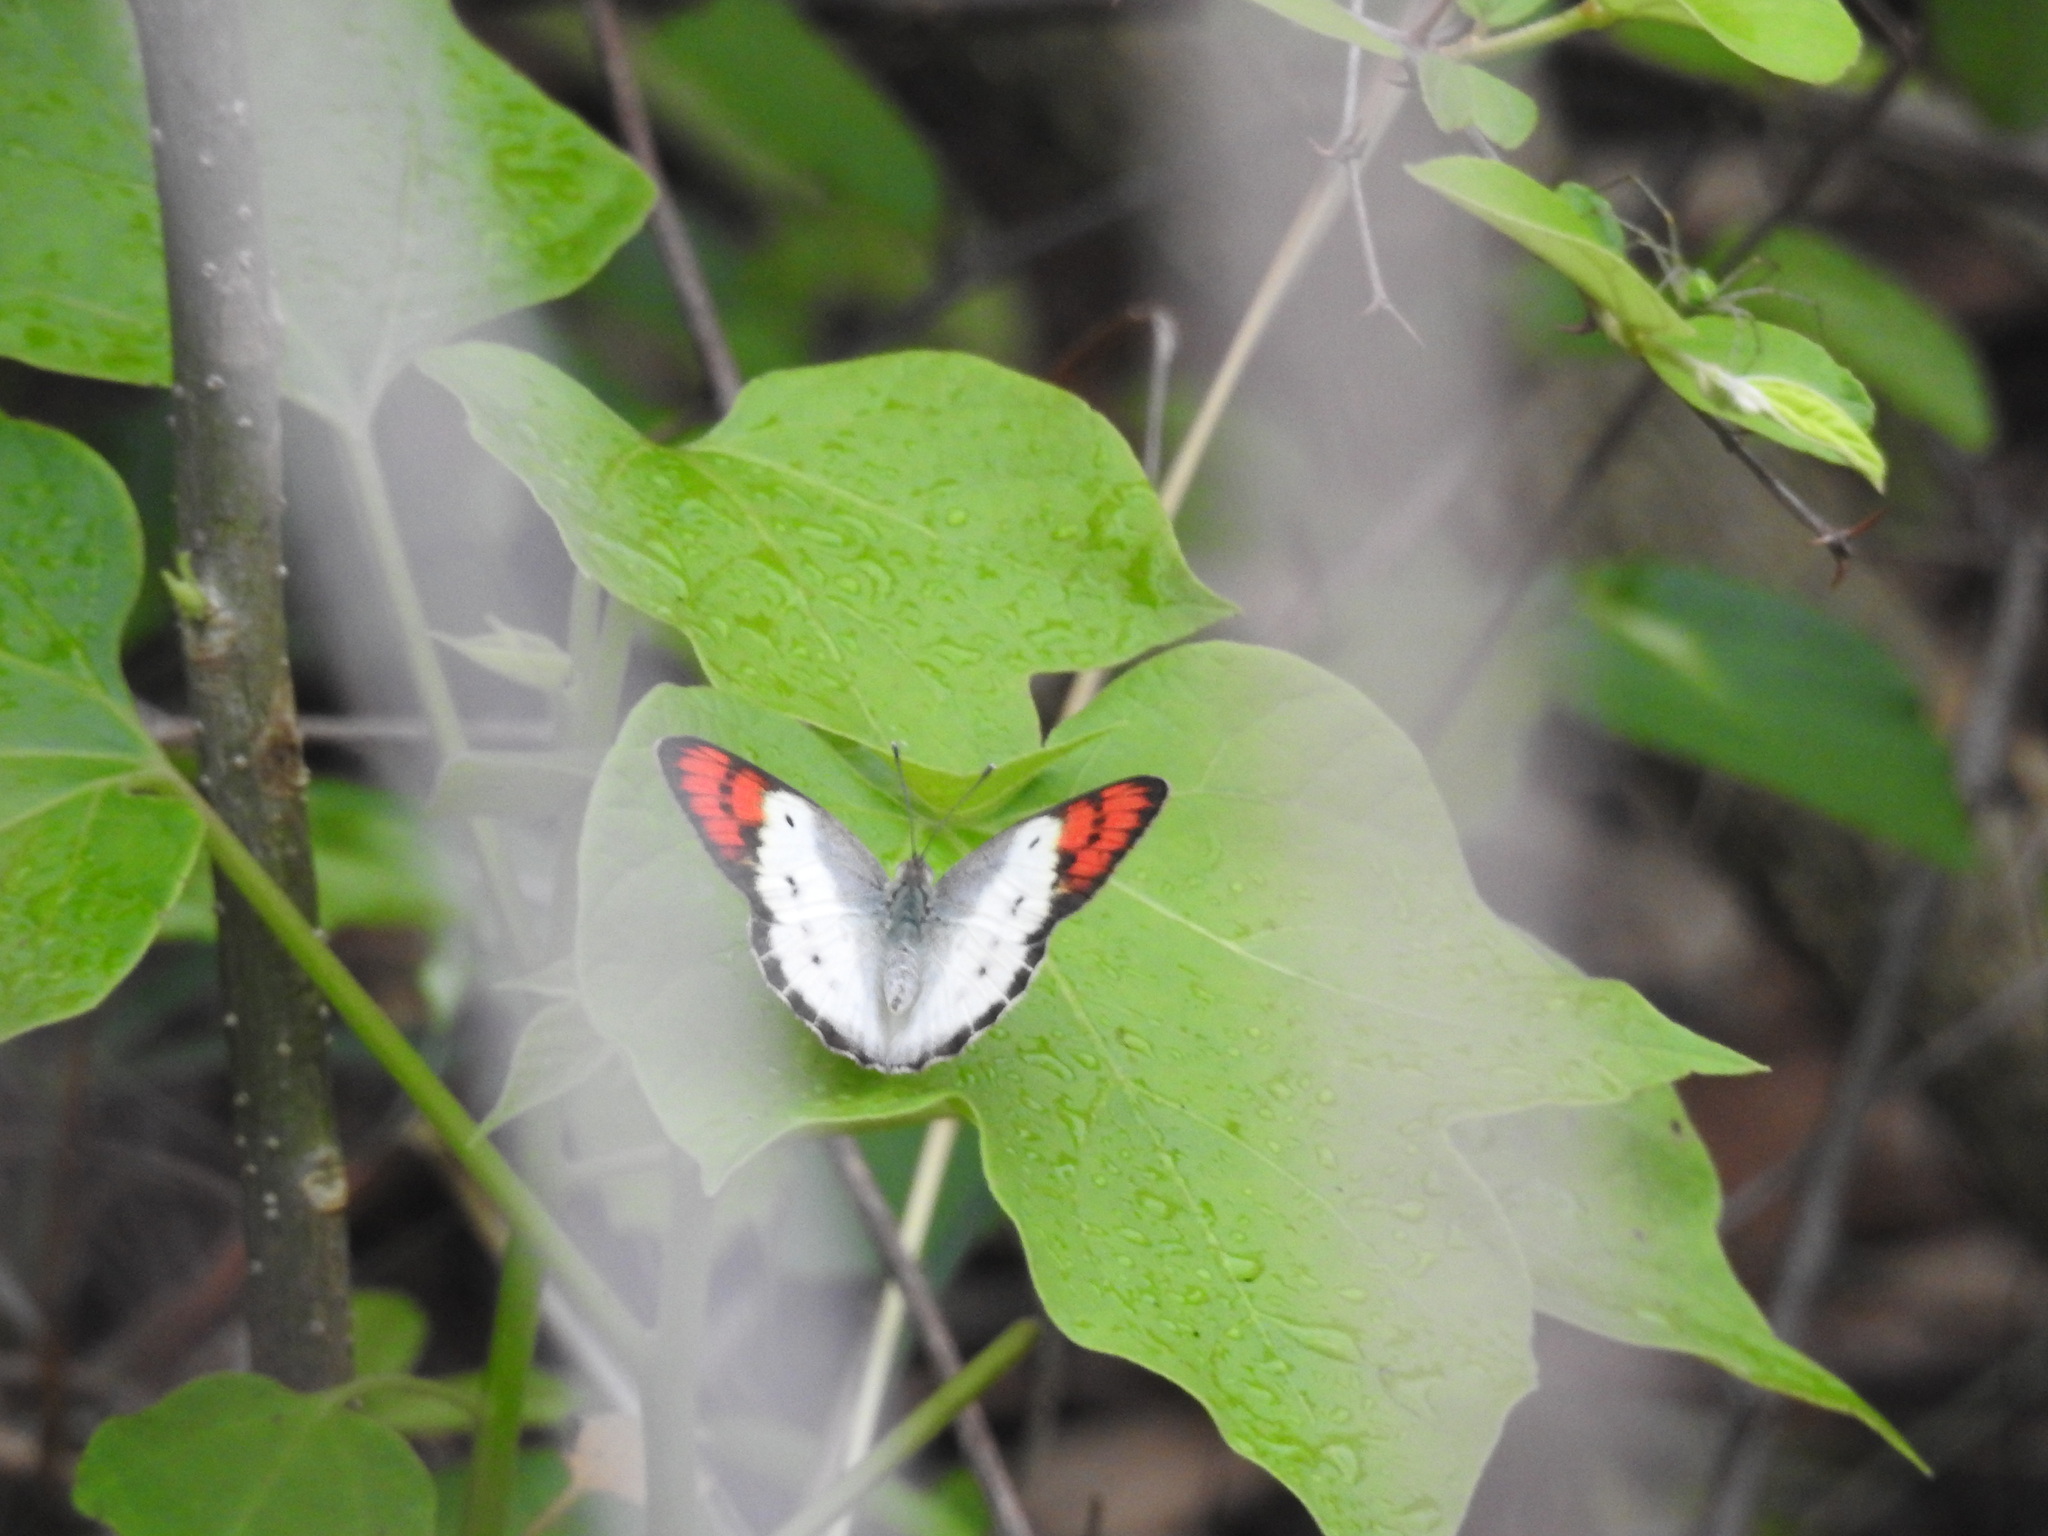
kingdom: Animalia
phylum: Arthropoda
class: Insecta
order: Lepidoptera
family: Pieridae
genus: Colotis
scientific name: Colotis danae
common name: Crimson tip
